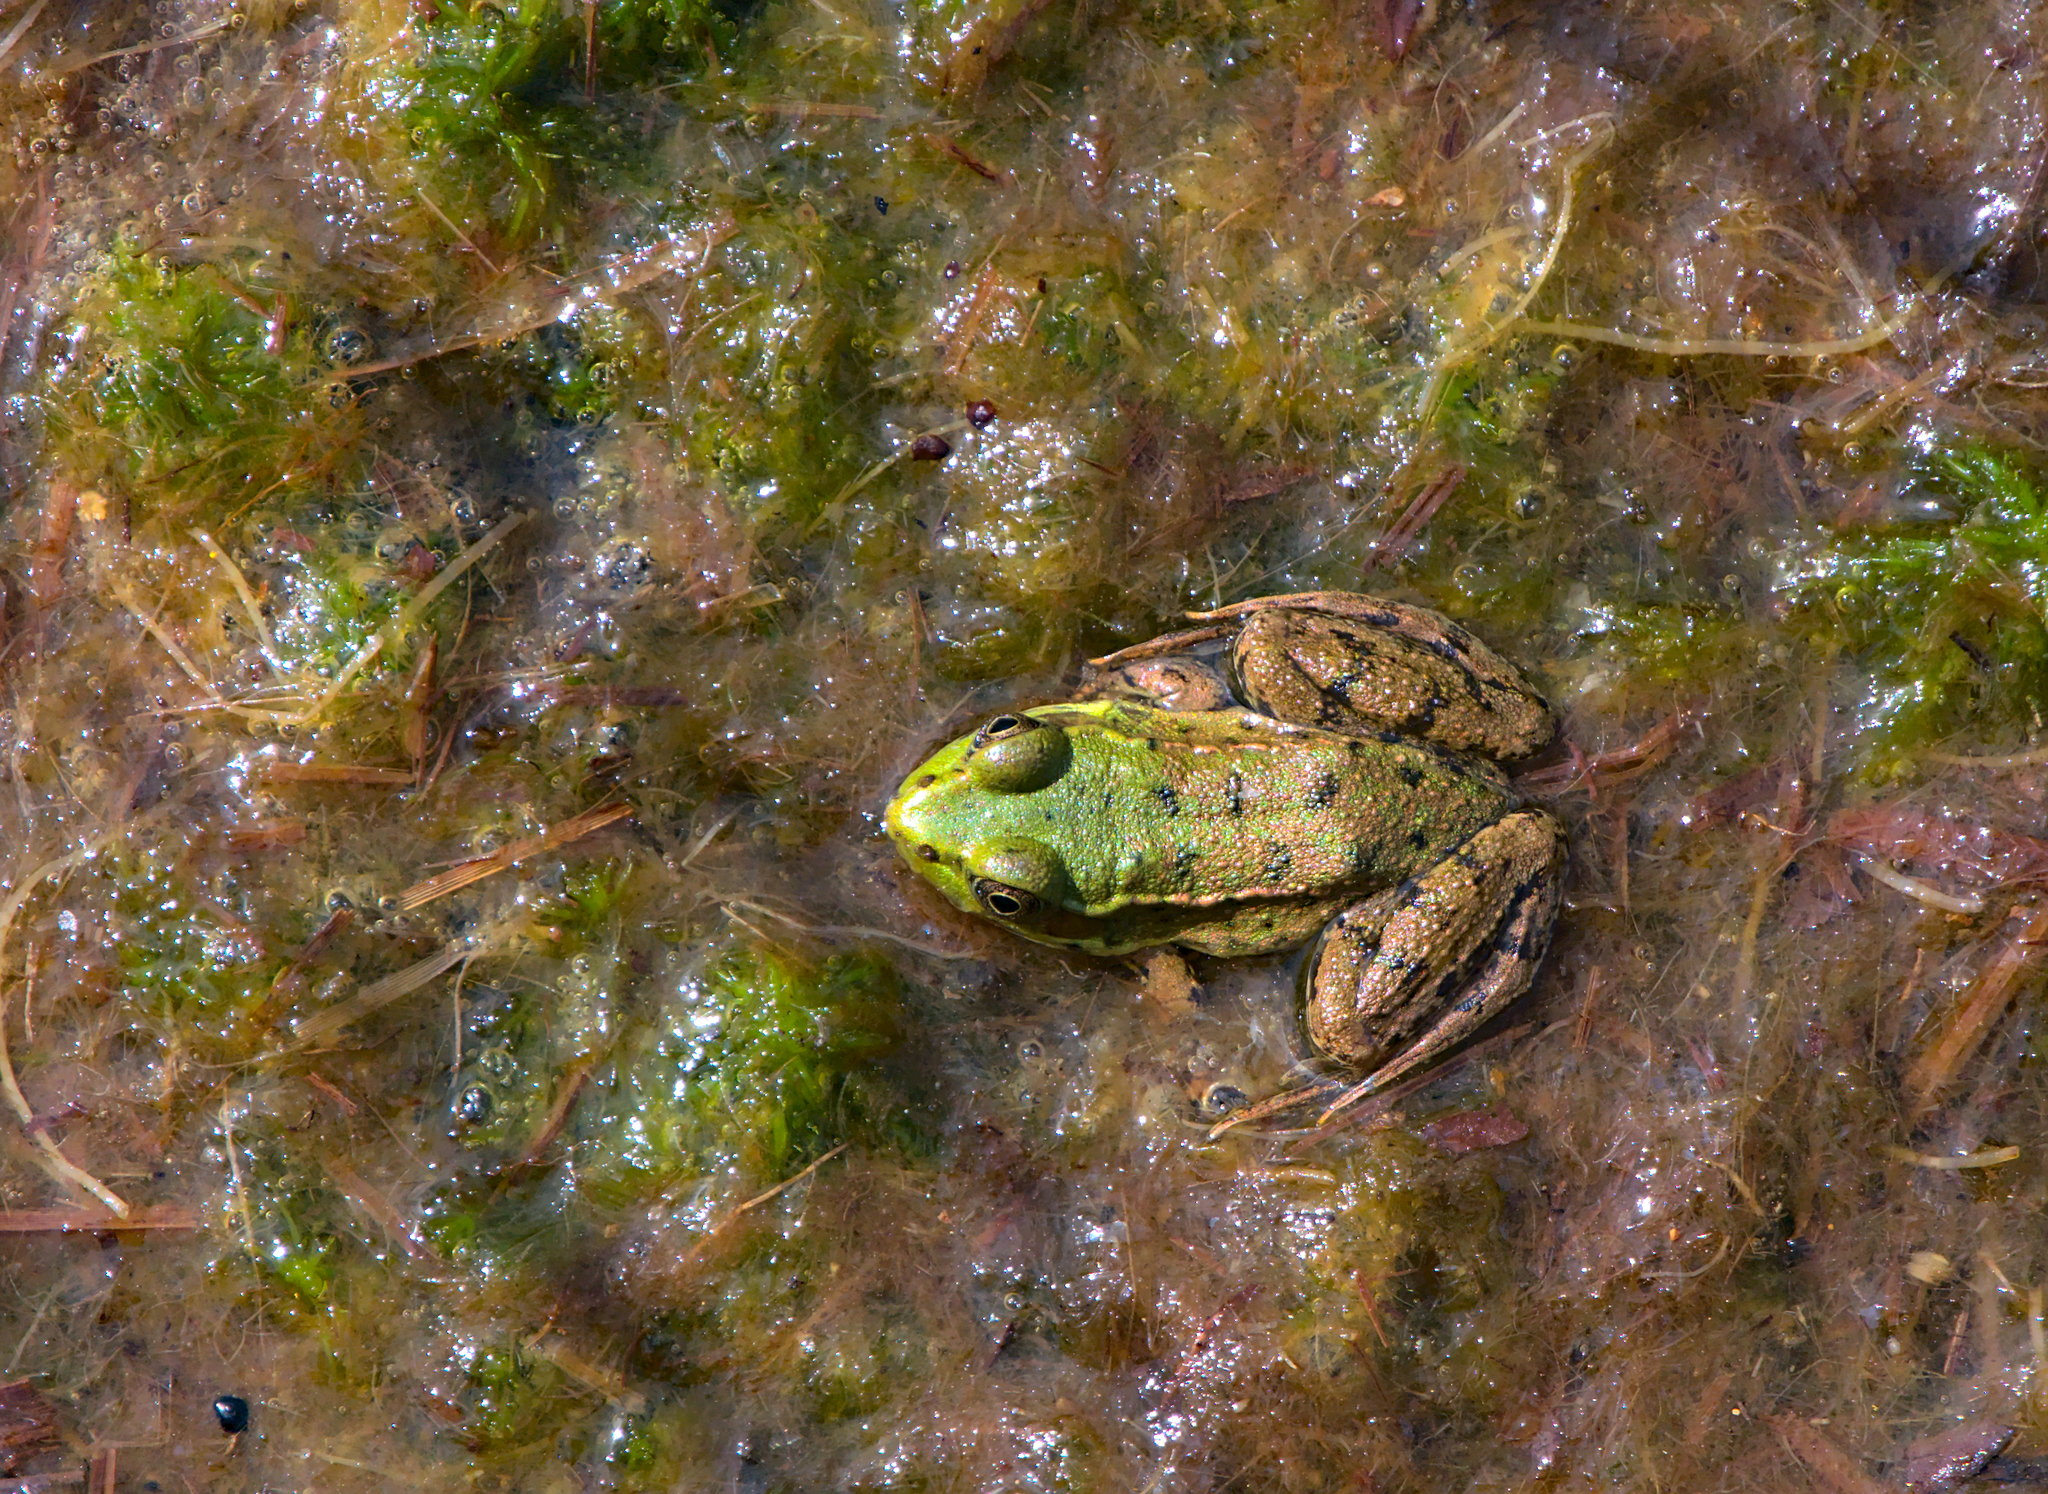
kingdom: Animalia
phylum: Chordata
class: Amphibia
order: Anura
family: Ranidae
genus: Lithobates
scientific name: Lithobates clamitans
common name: Green frog
